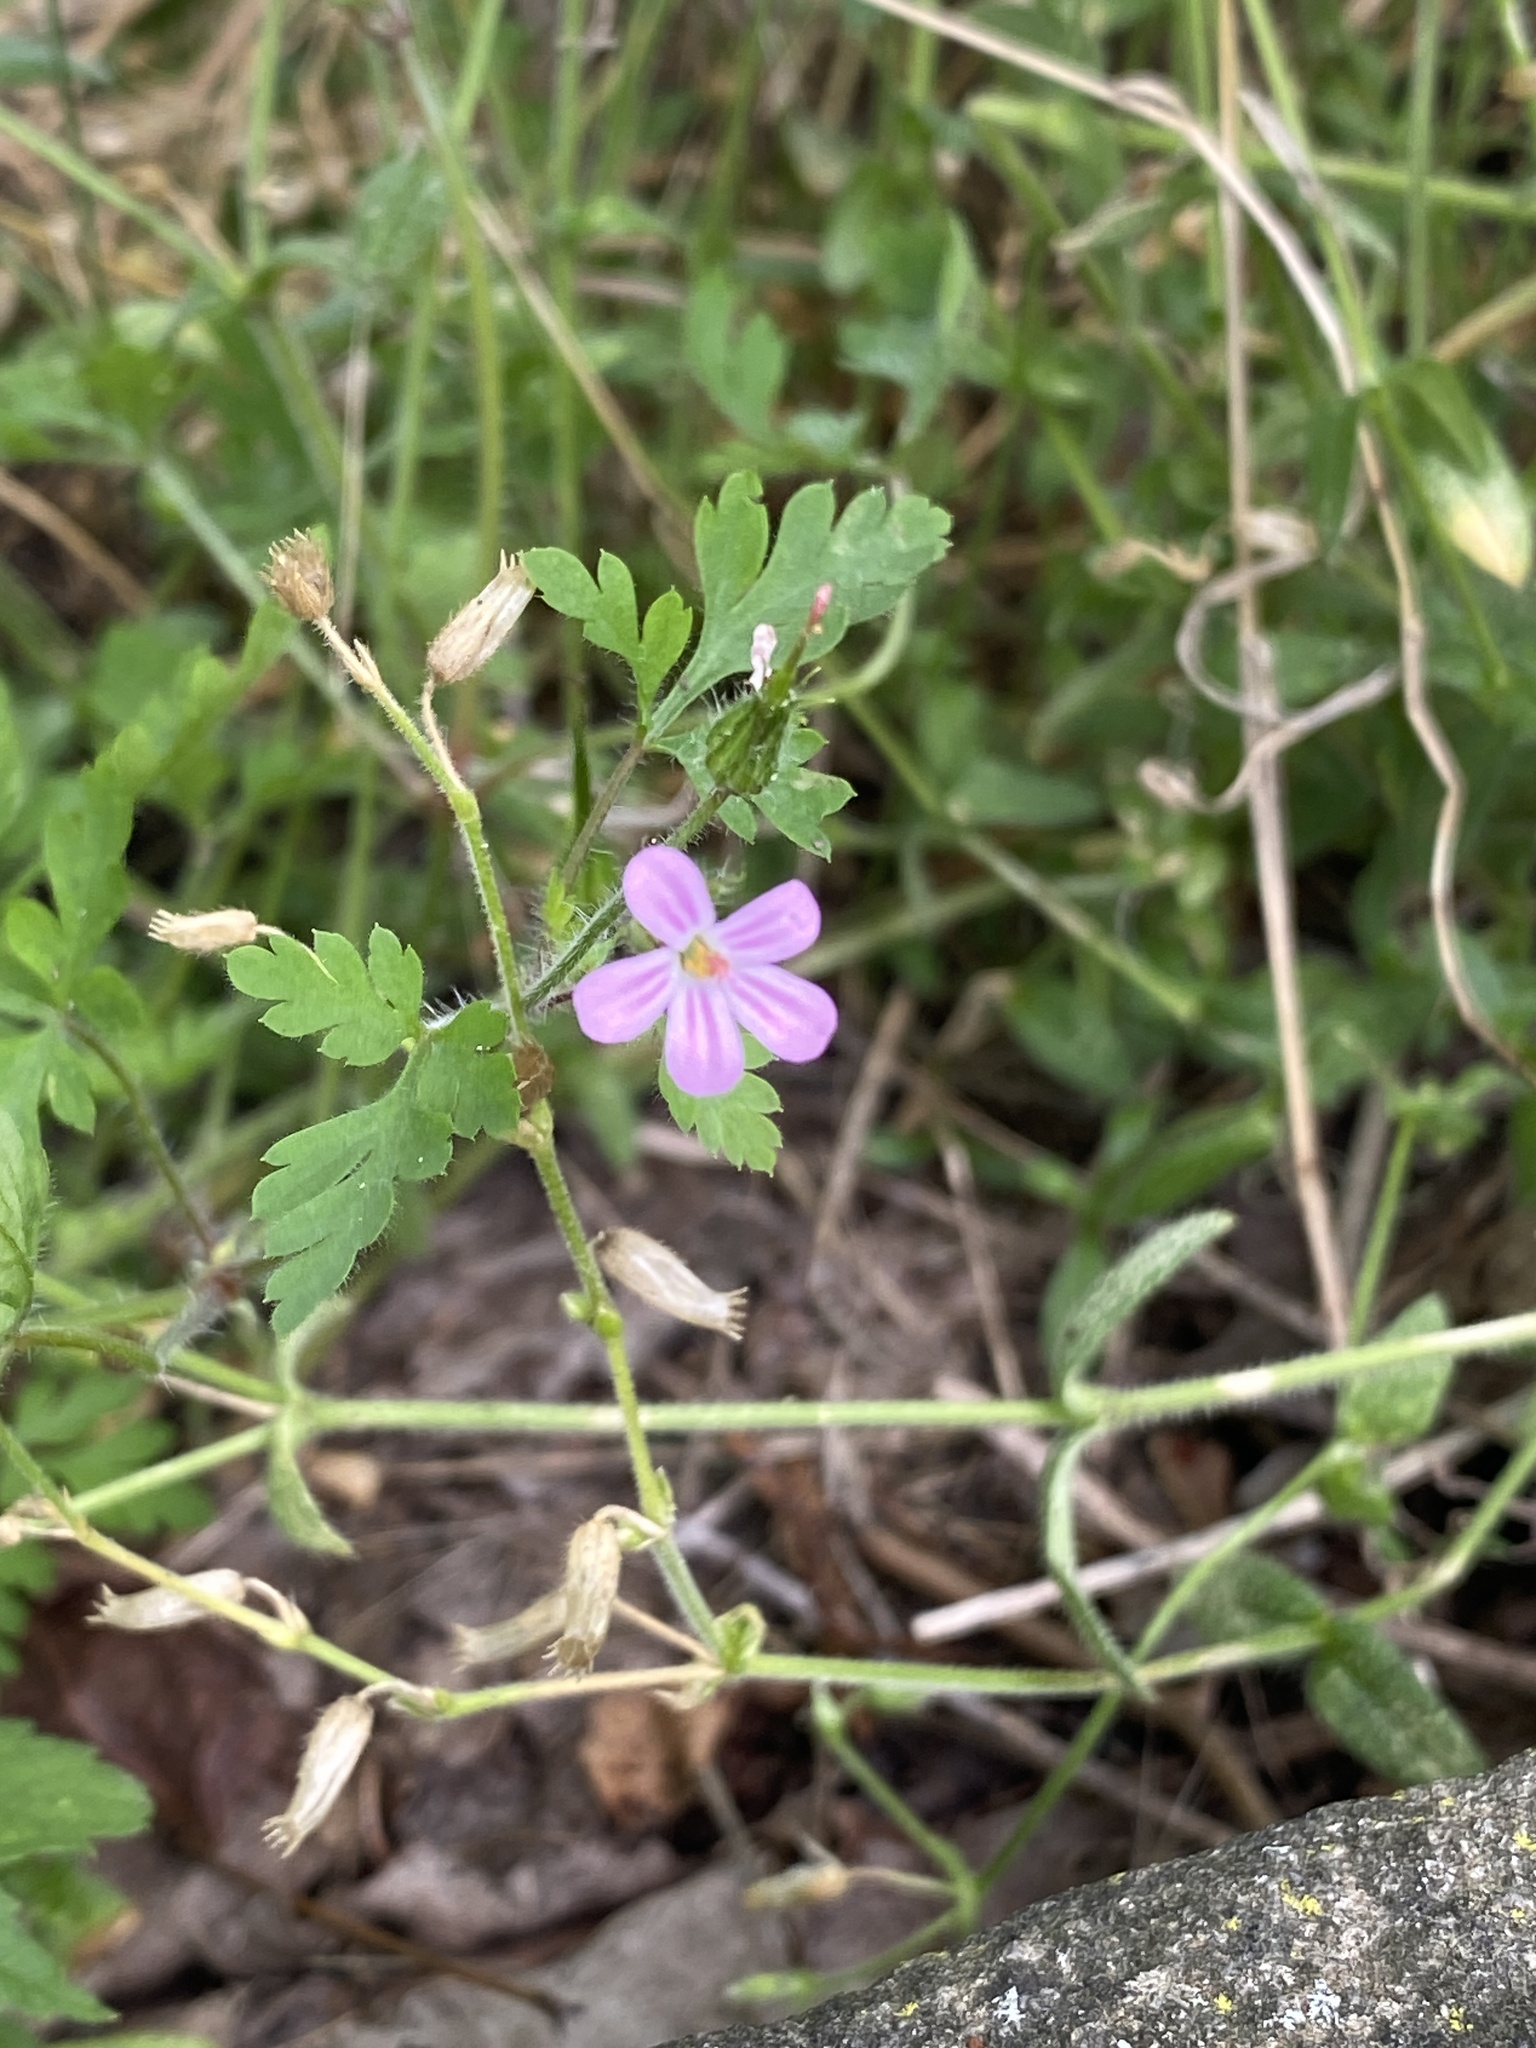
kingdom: Plantae
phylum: Tracheophyta
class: Magnoliopsida
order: Geraniales
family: Geraniaceae
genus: Geranium
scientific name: Geranium robertianum
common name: Herb-robert
